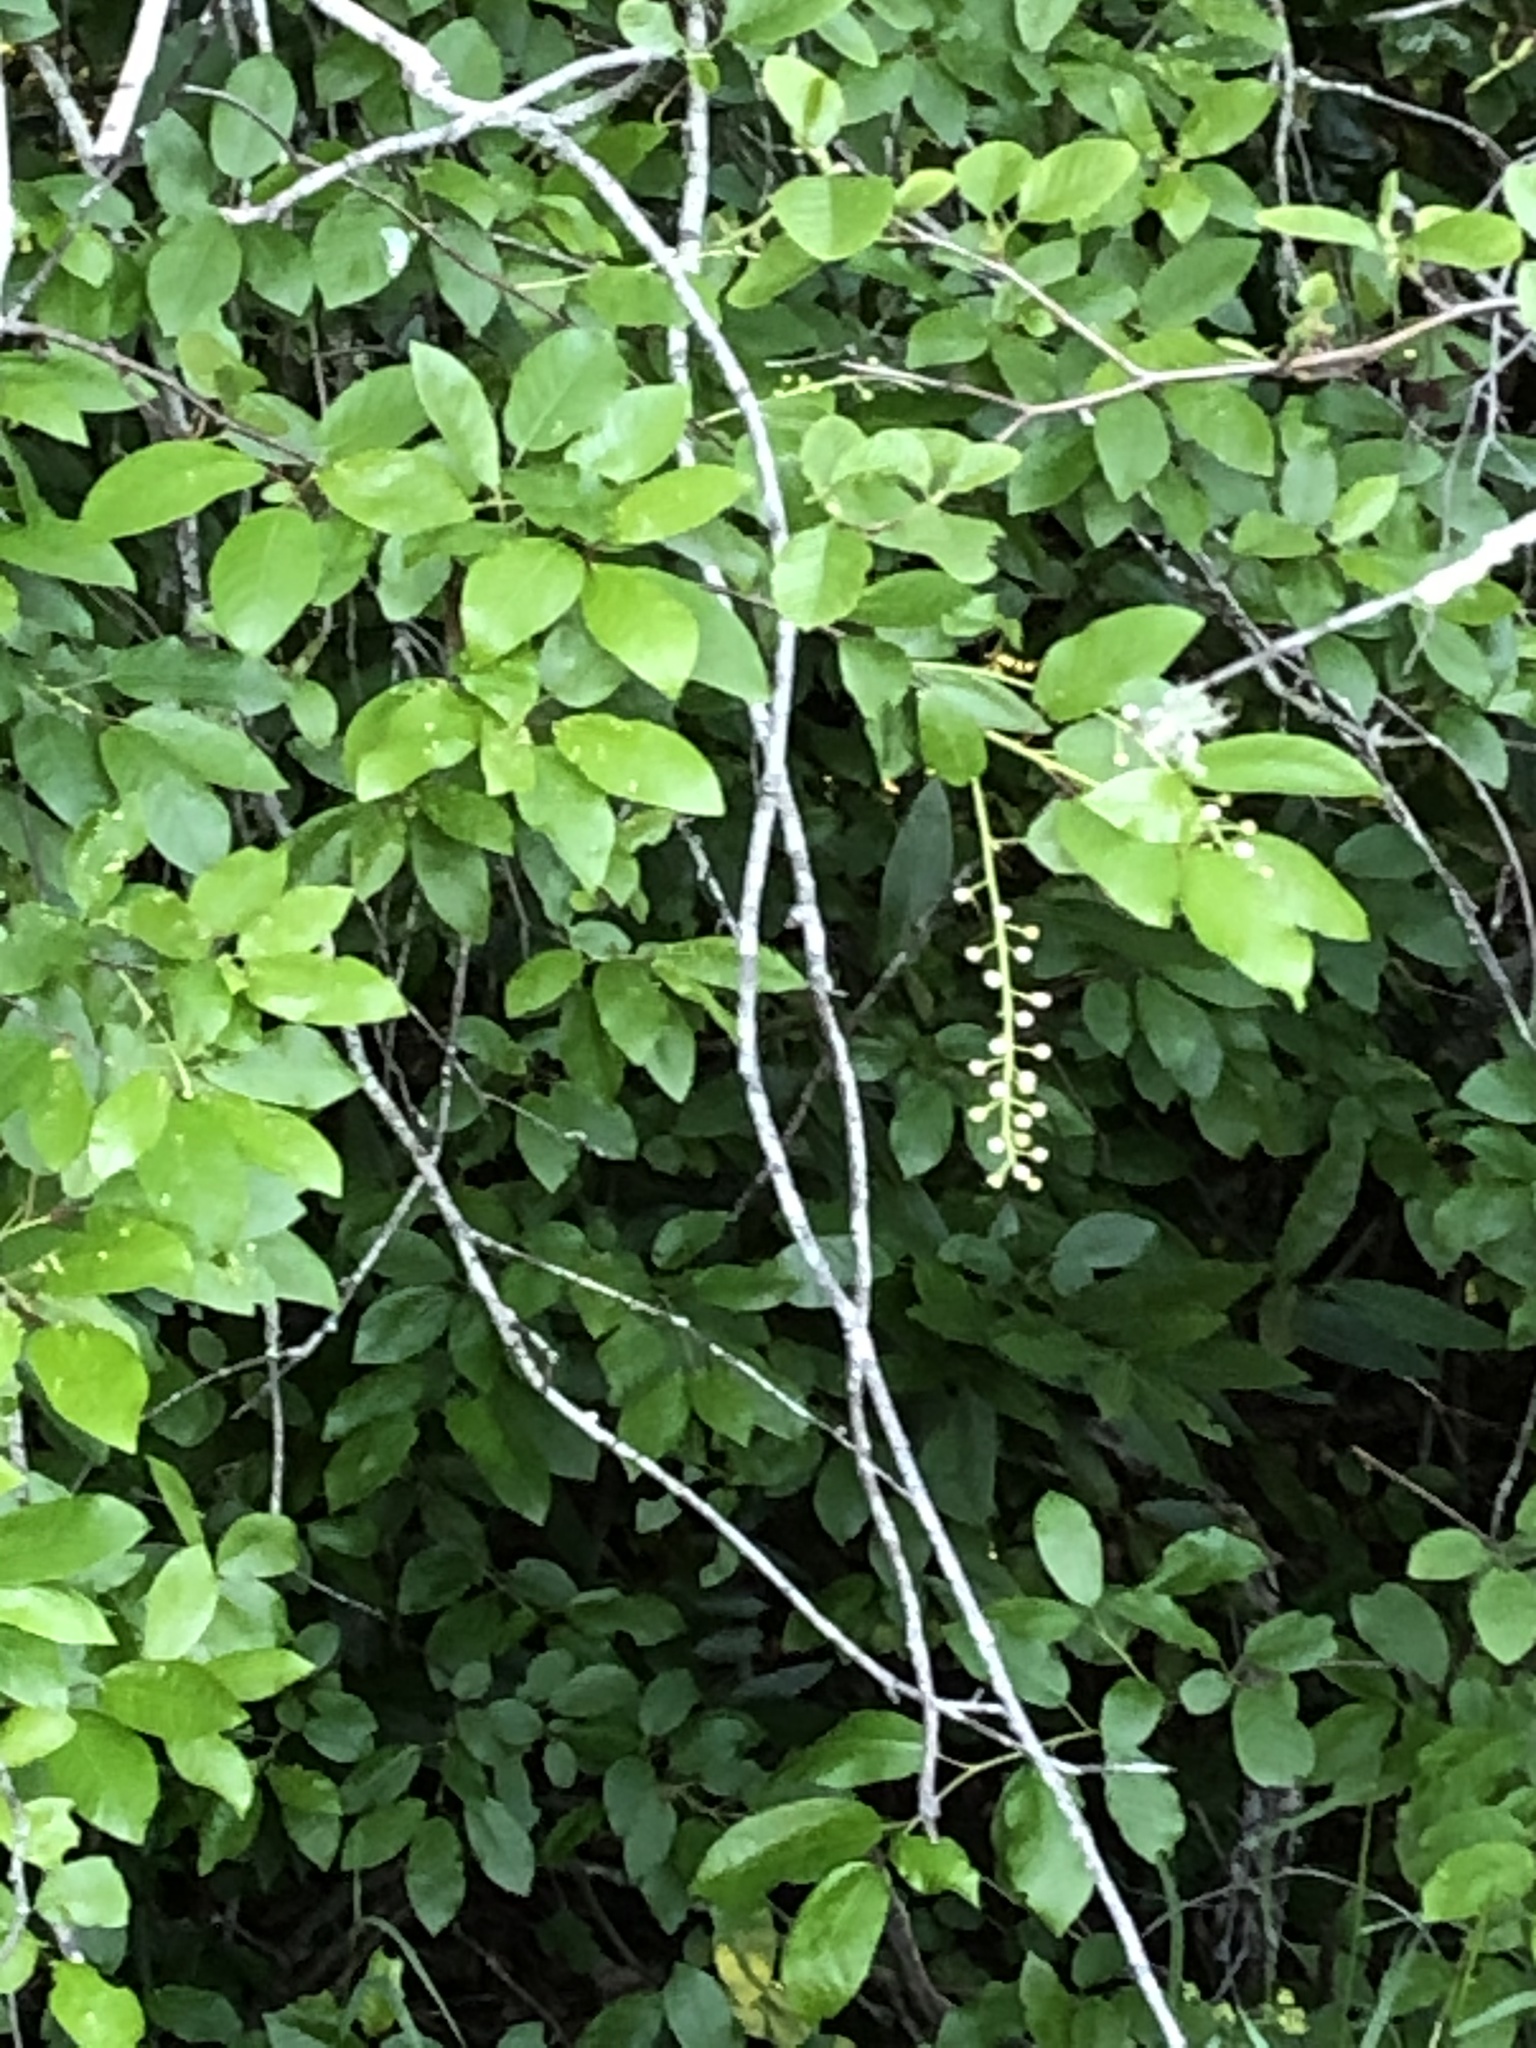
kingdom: Plantae
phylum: Tracheophyta
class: Magnoliopsida
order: Rosales
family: Rosaceae
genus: Prunus
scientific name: Prunus virginiana
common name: Chokecherry
